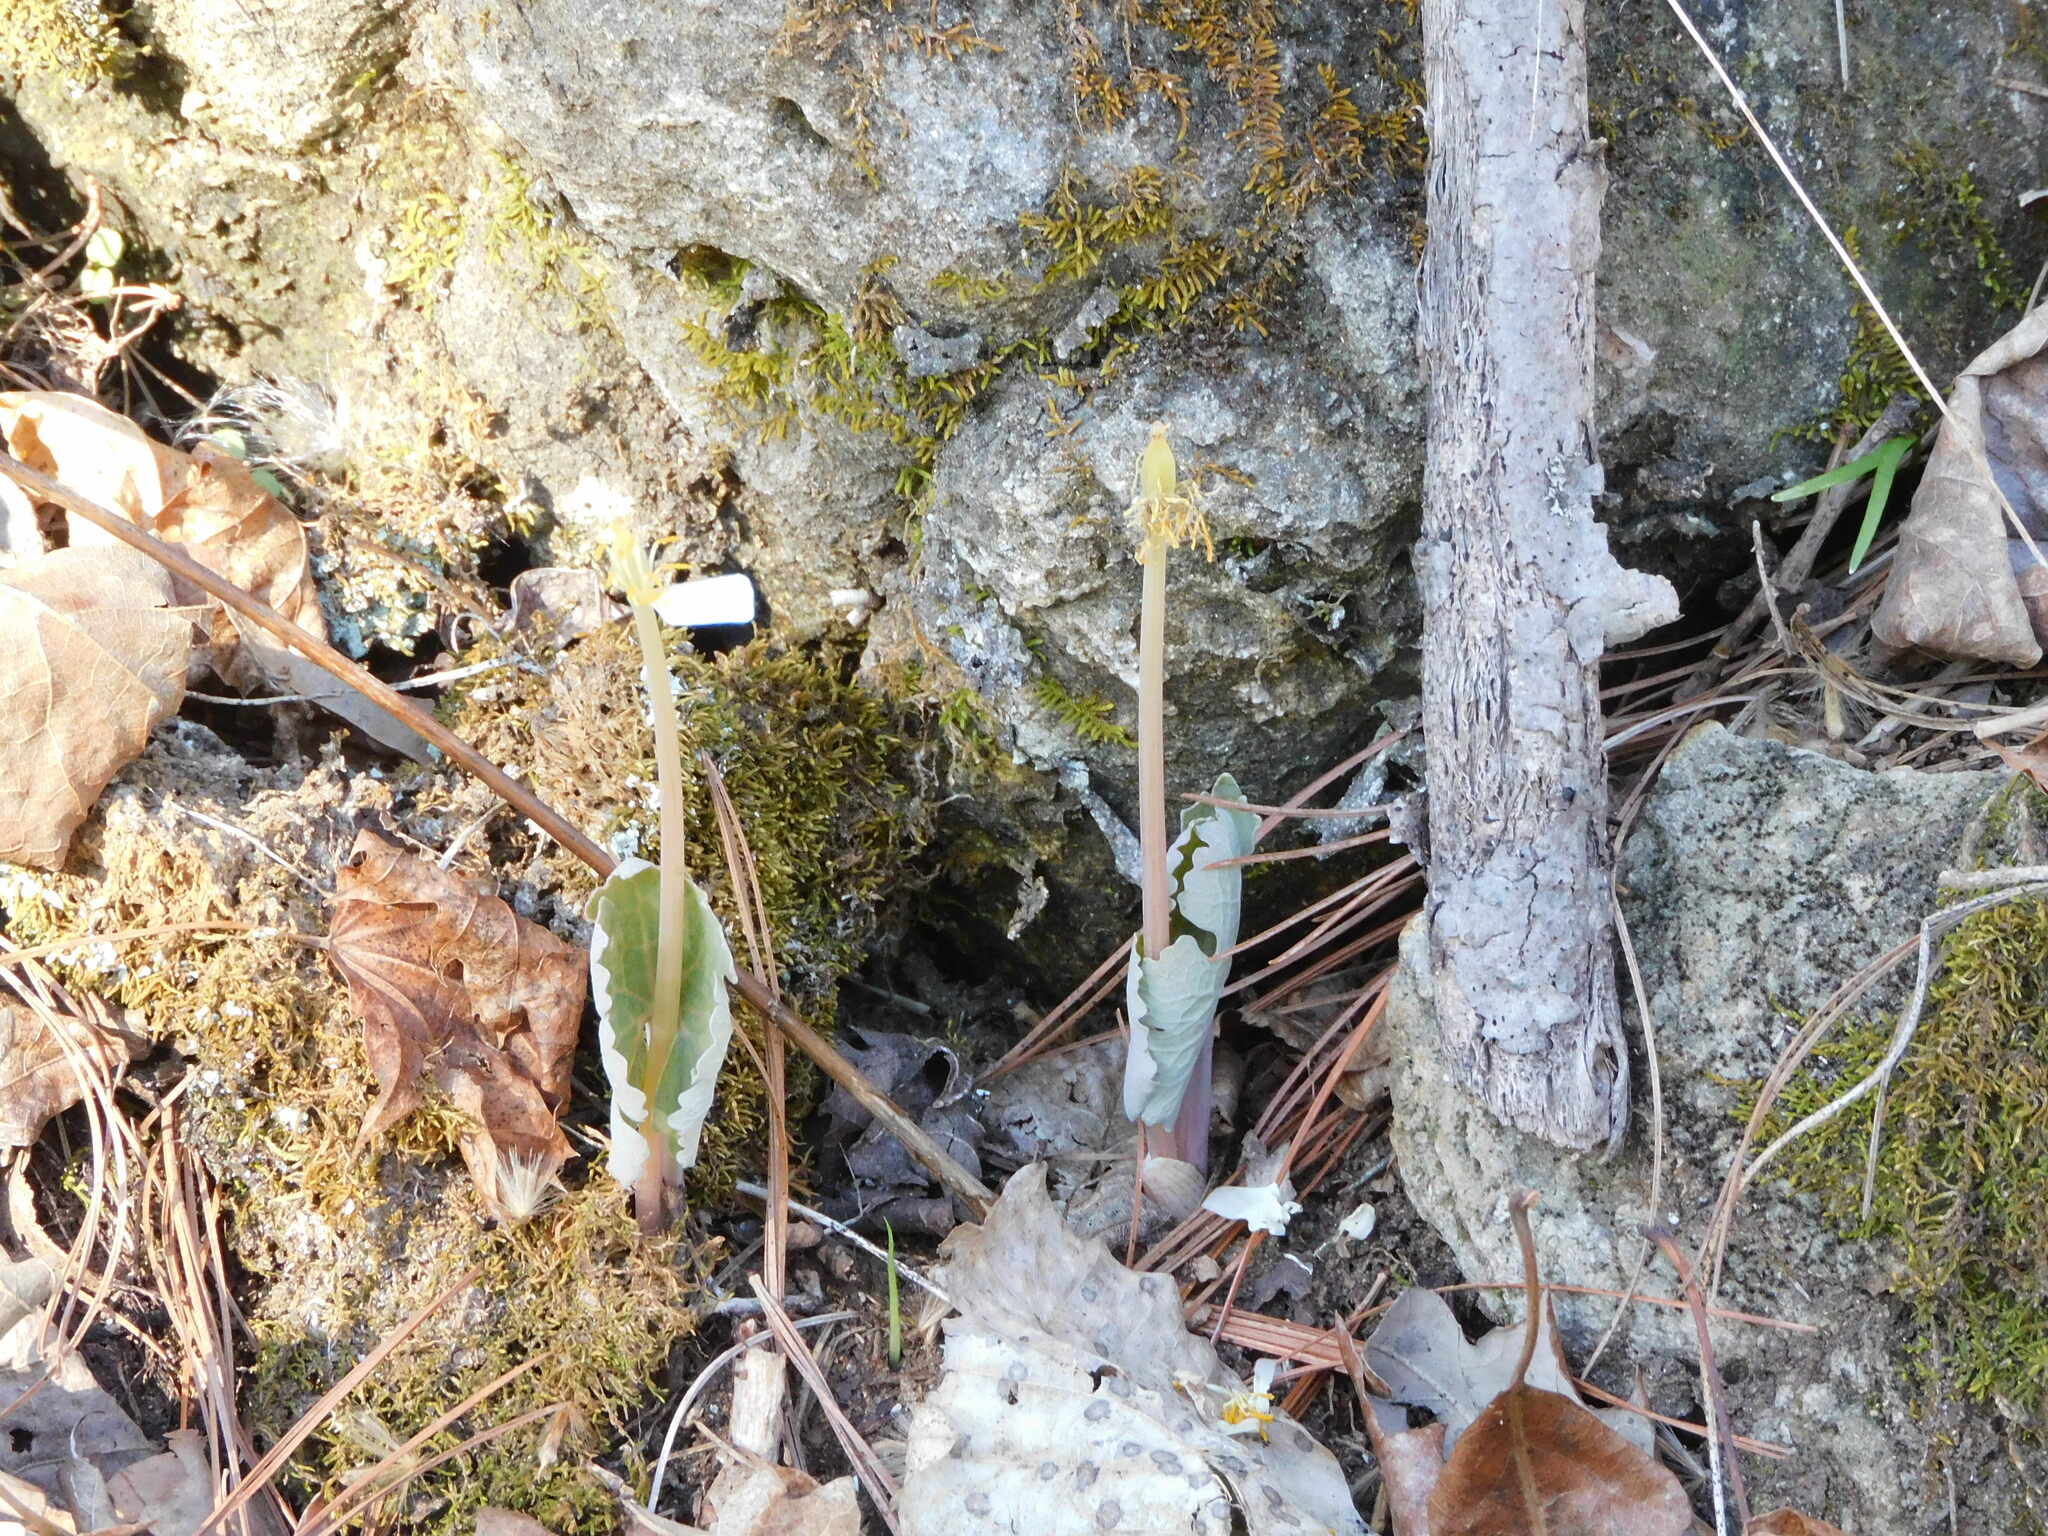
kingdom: Plantae
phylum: Tracheophyta
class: Magnoliopsida
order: Ranunculales
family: Papaveraceae
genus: Sanguinaria
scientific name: Sanguinaria canadensis
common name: Bloodroot
